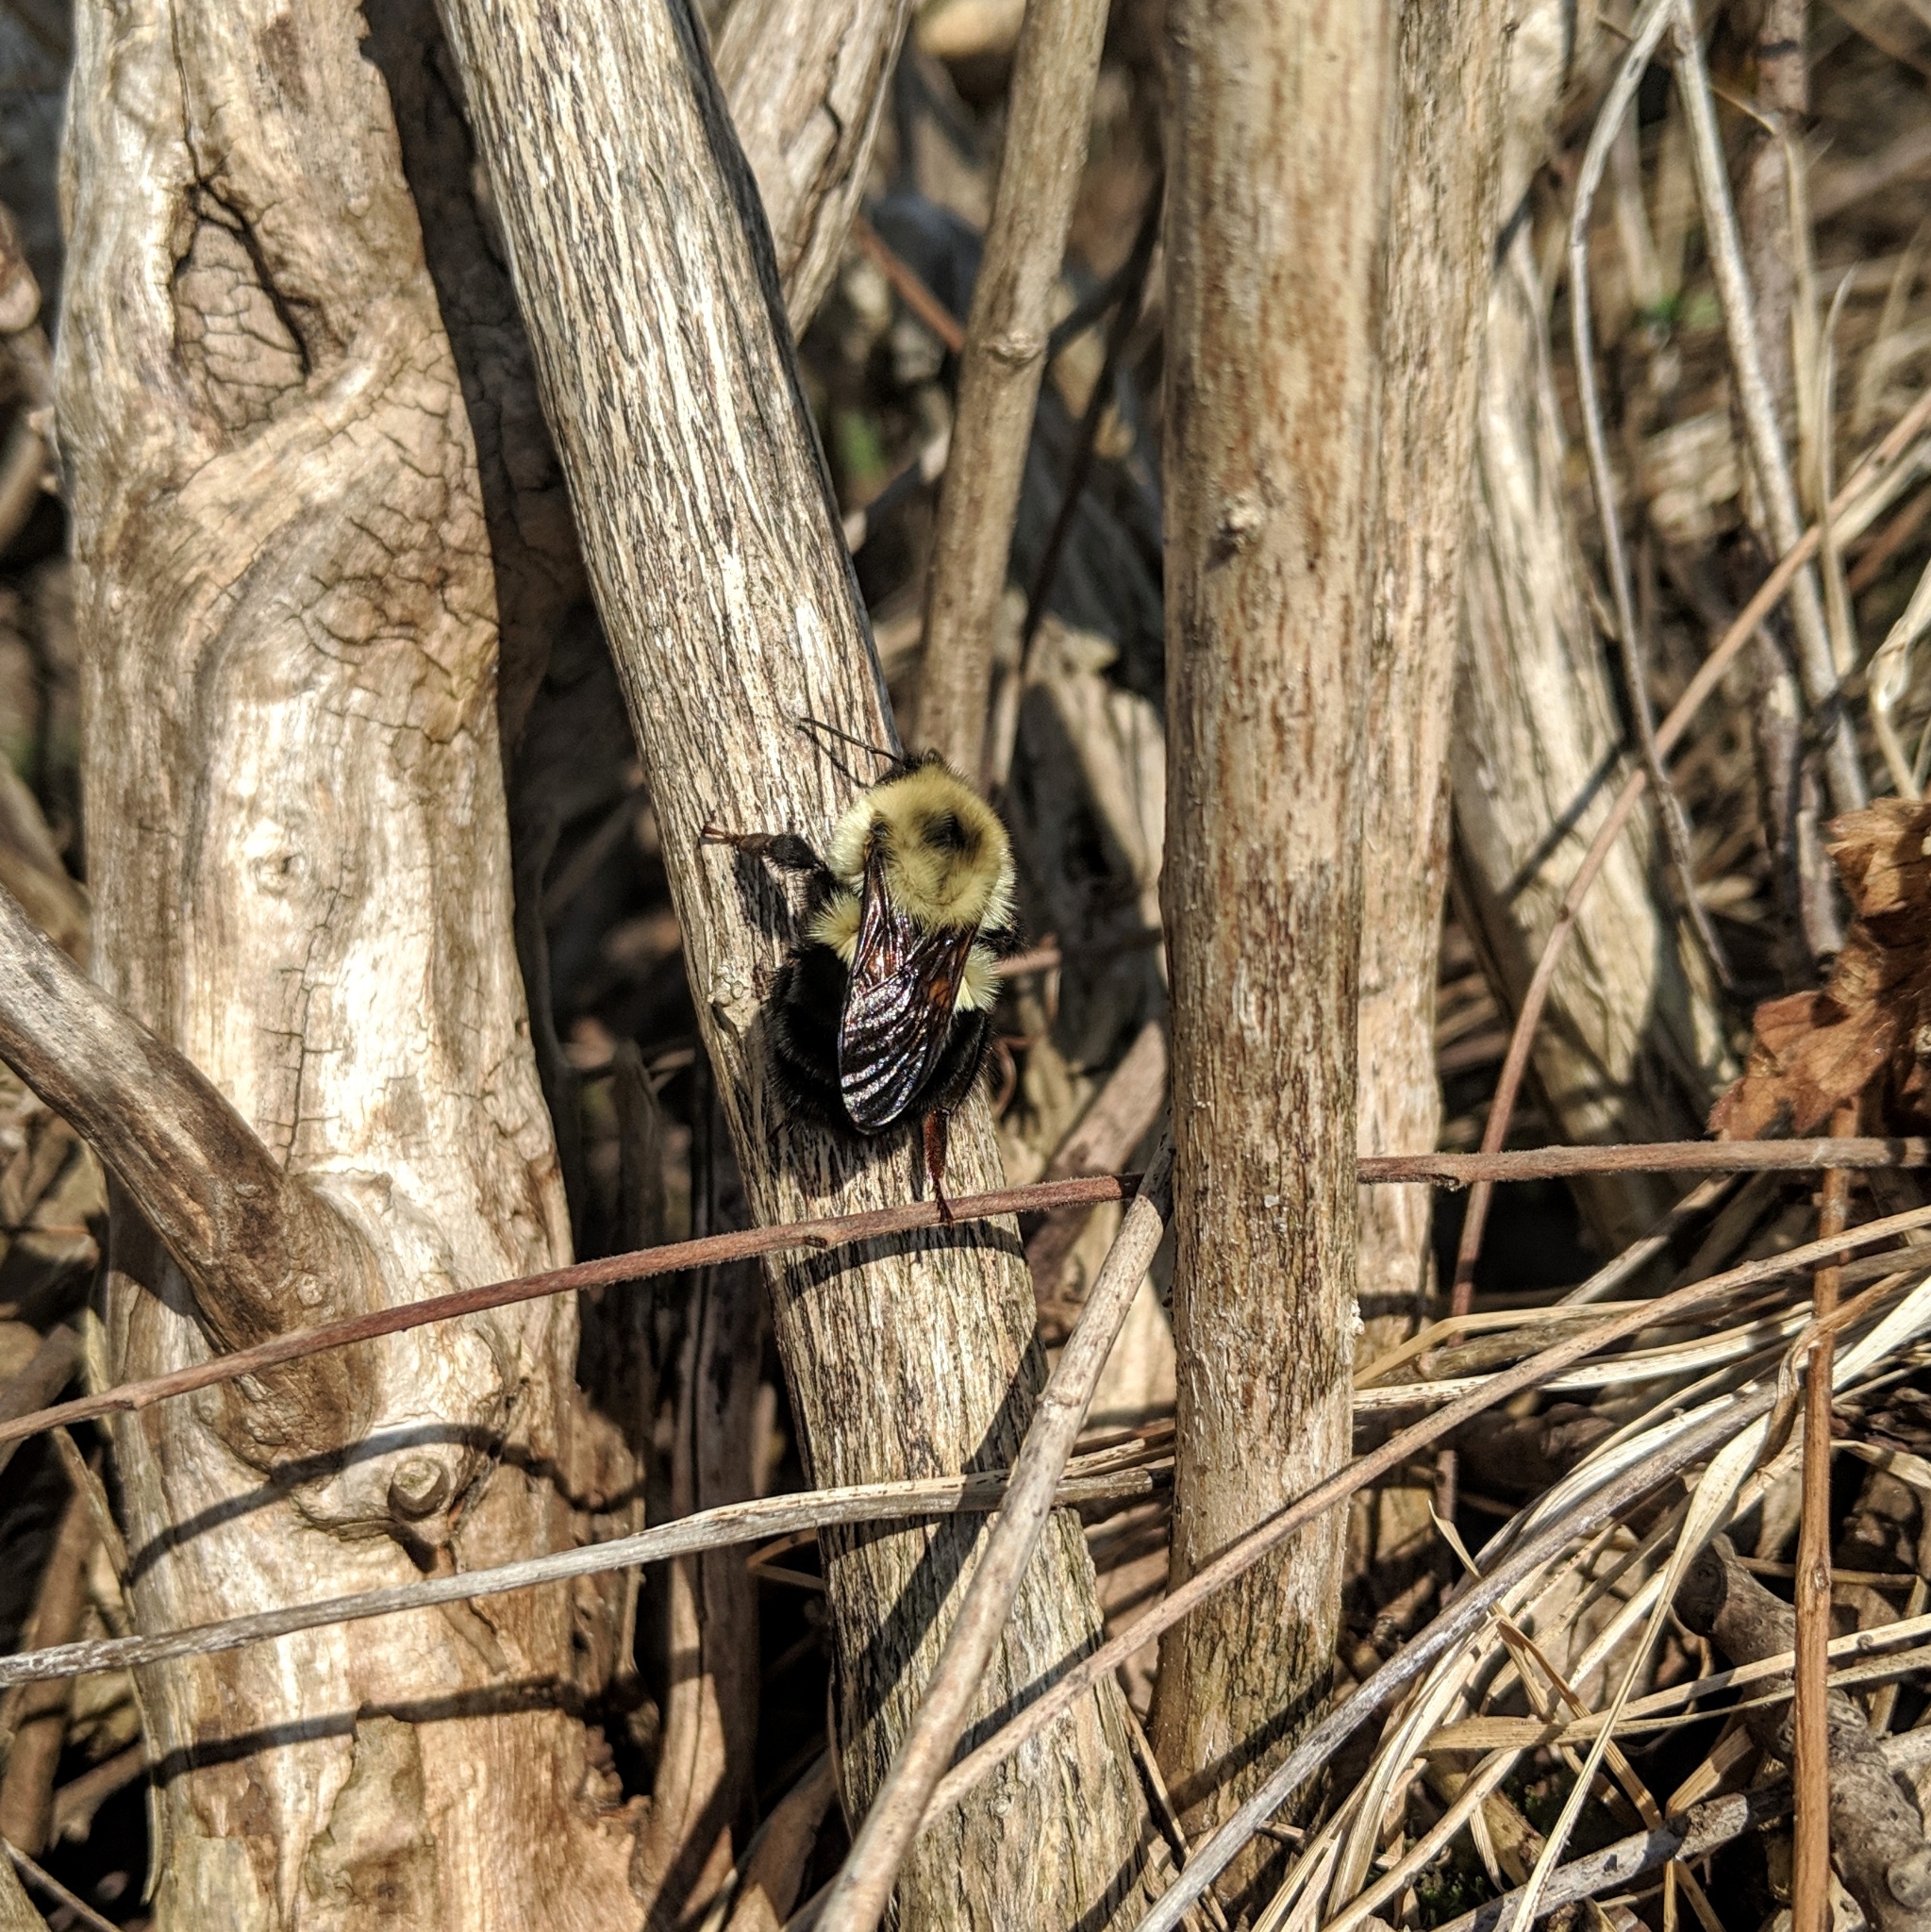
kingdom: Animalia
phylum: Arthropoda
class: Insecta
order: Hymenoptera
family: Apidae
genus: Bombus
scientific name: Bombus bimaculatus
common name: Two-spotted bumble bee
